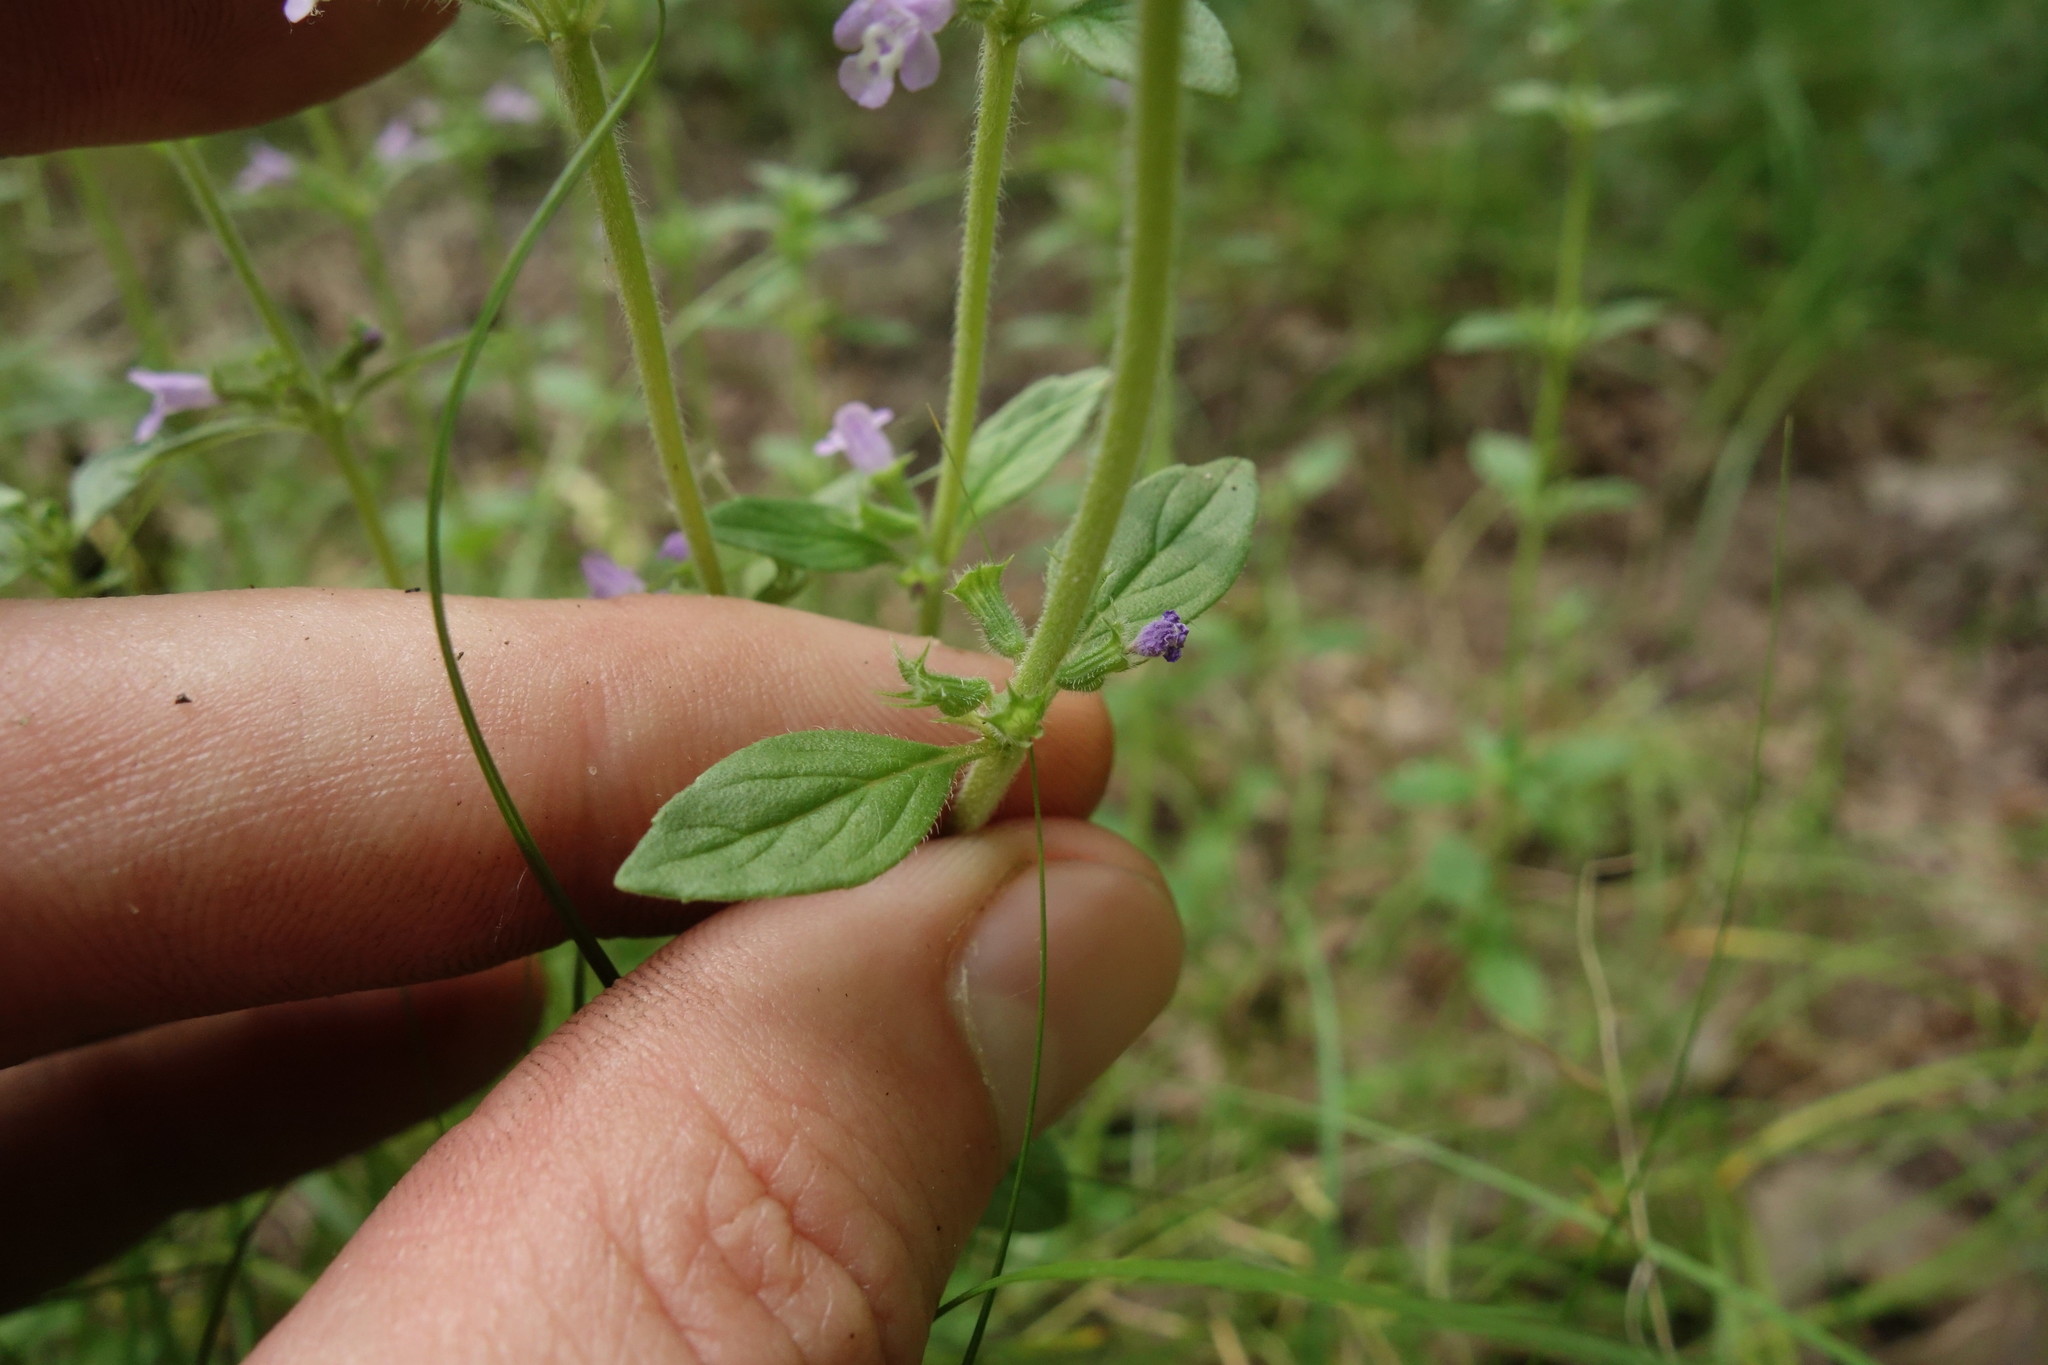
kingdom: Plantae
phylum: Tracheophyta
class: Magnoliopsida
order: Lamiales
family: Lamiaceae
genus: Clinopodium
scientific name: Clinopodium acinos
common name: Basil thyme
